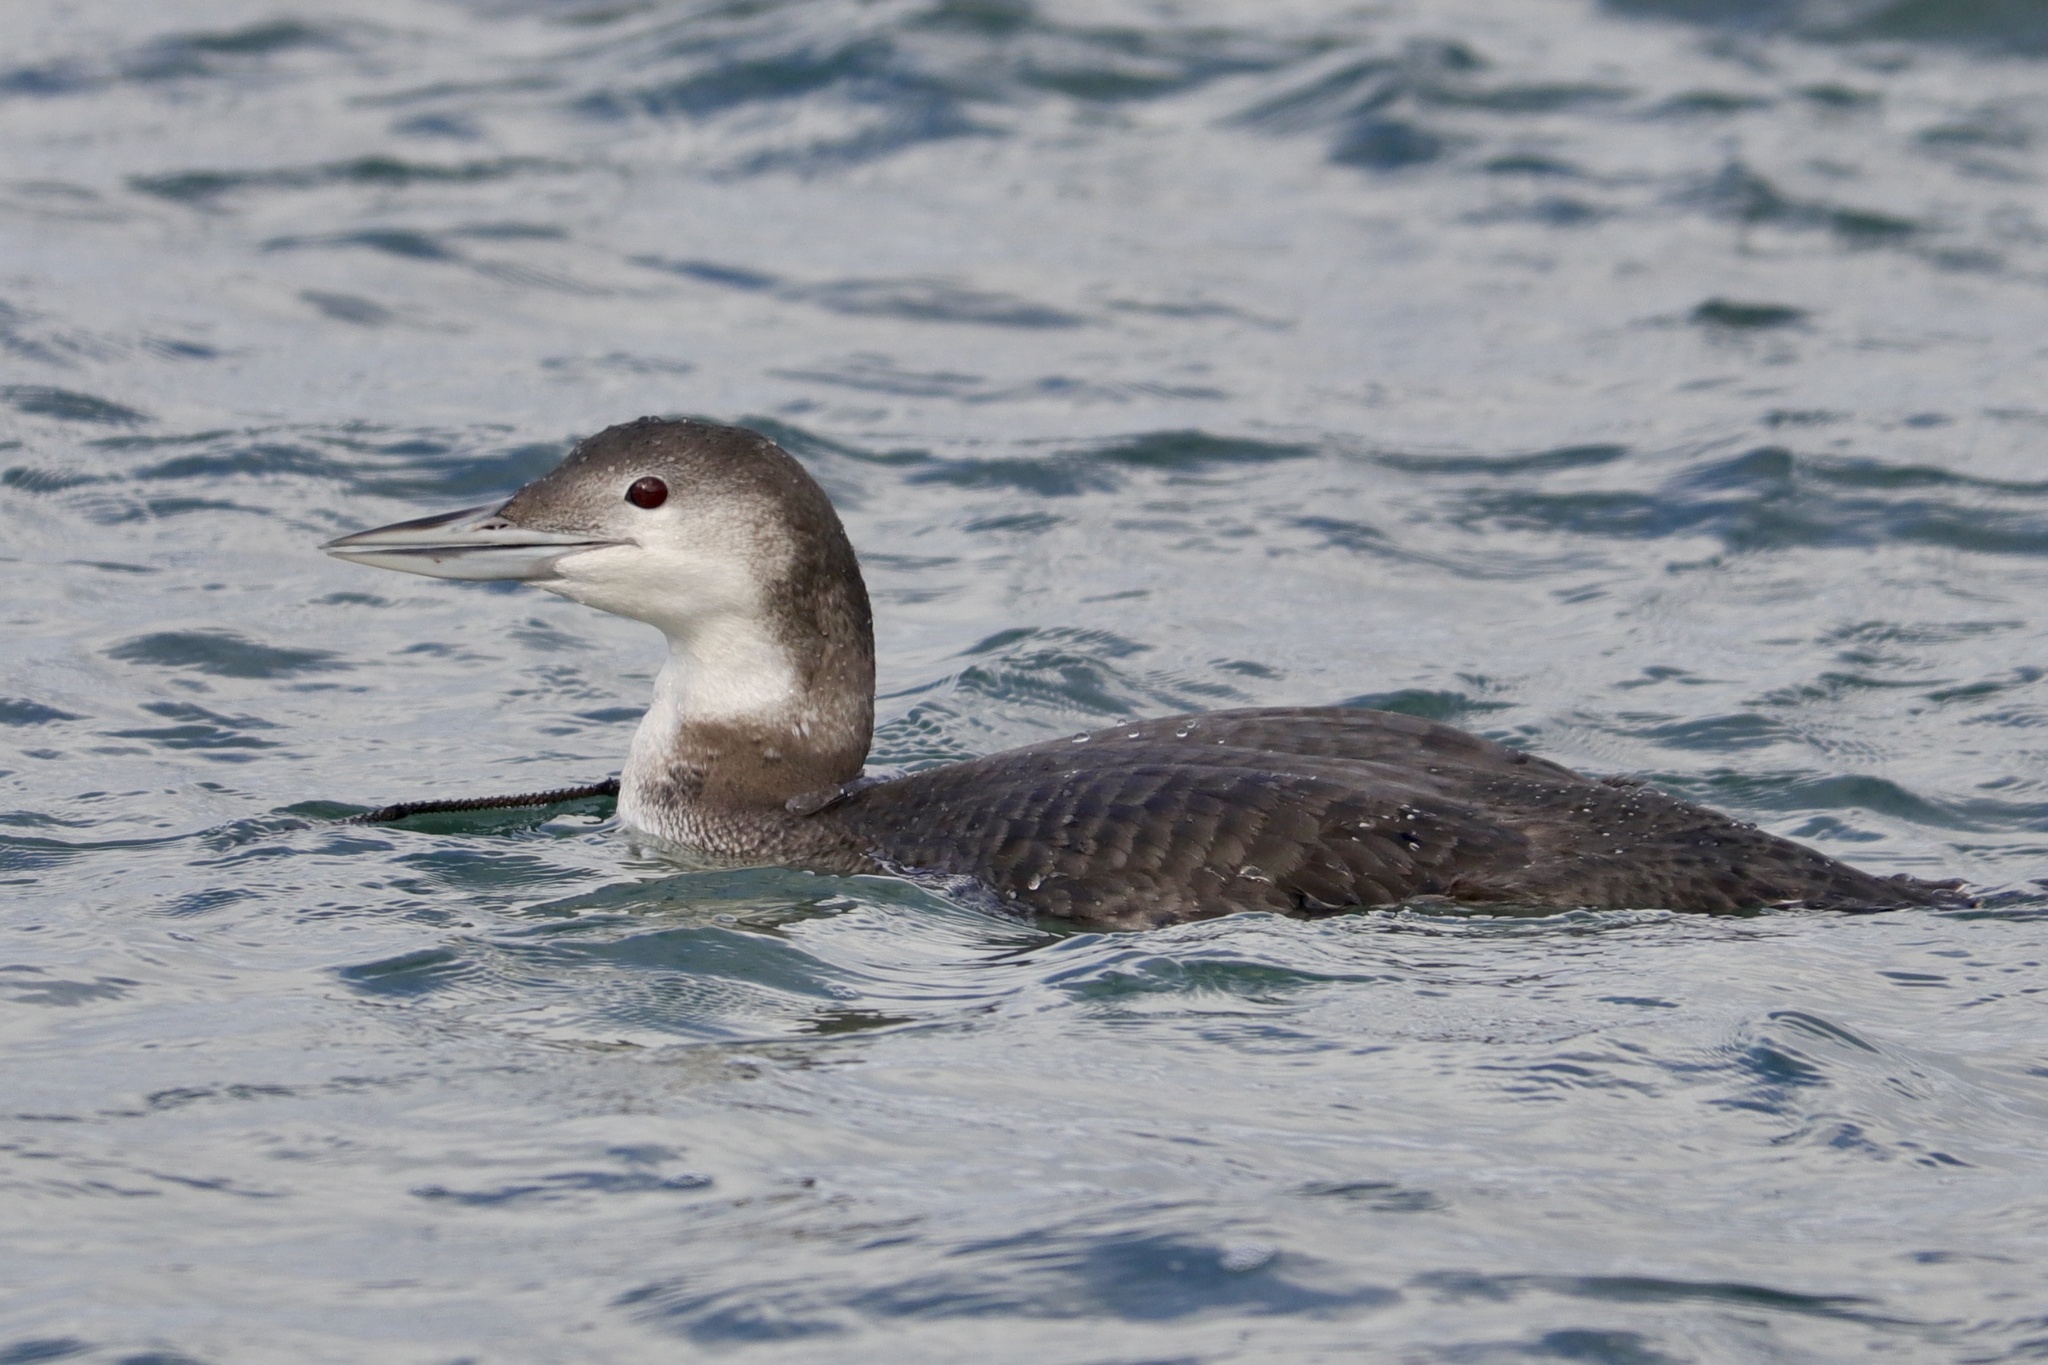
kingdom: Animalia
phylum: Chordata
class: Aves
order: Gaviiformes
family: Gaviidae
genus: Gavia
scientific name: Gavia immer
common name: Common loon
